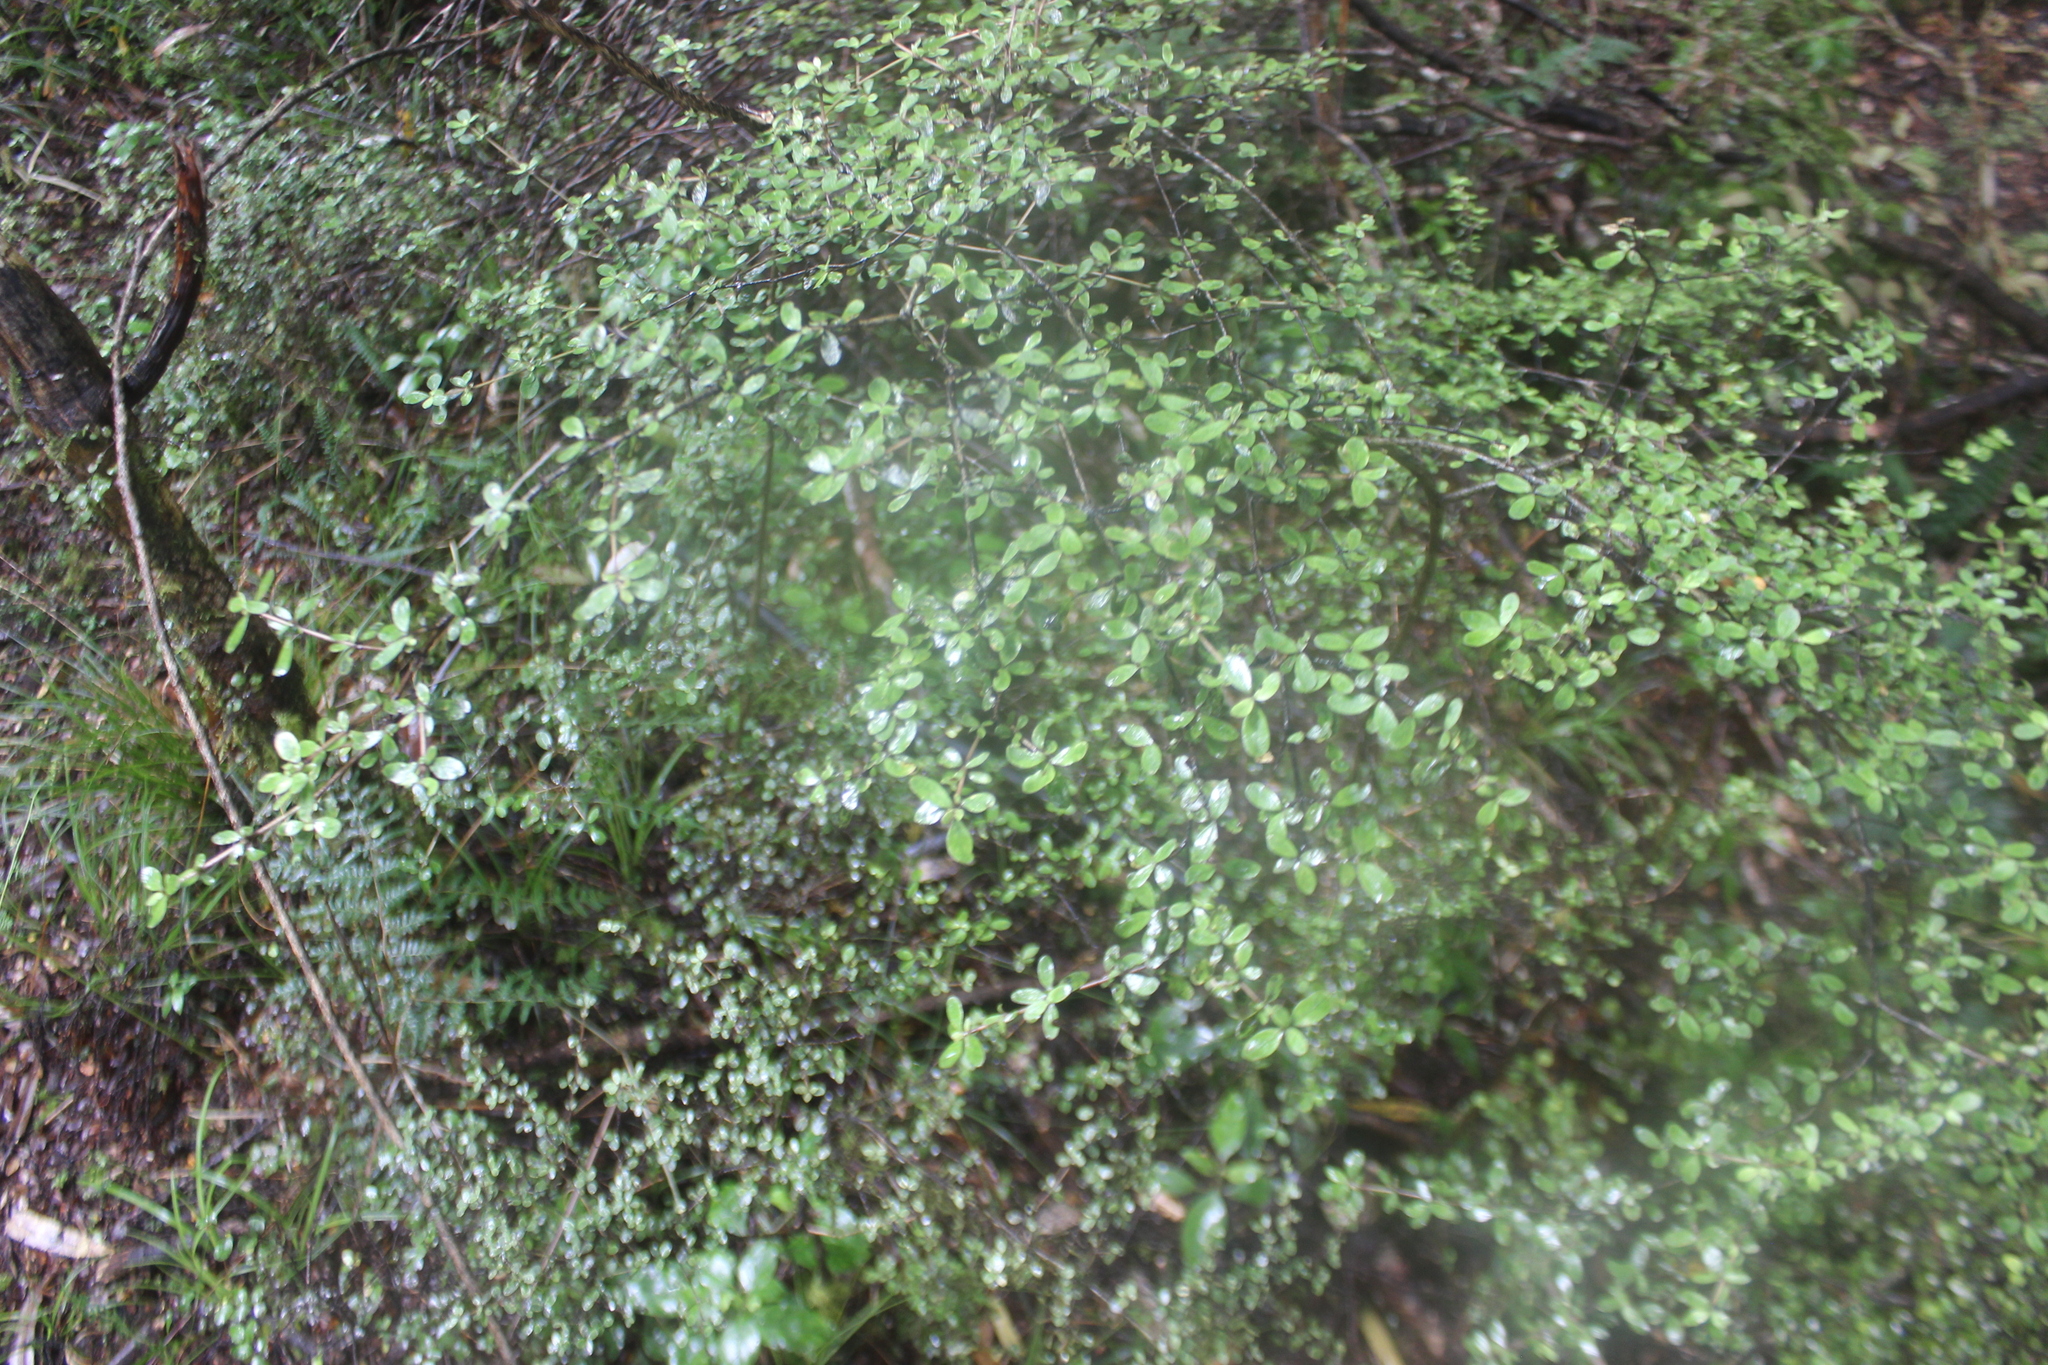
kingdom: Plantae
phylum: Tracheophyta
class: Magnoliopsida
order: Gentianales
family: Rubiaceae
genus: Coprosma
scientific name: Coprosma dumosa
